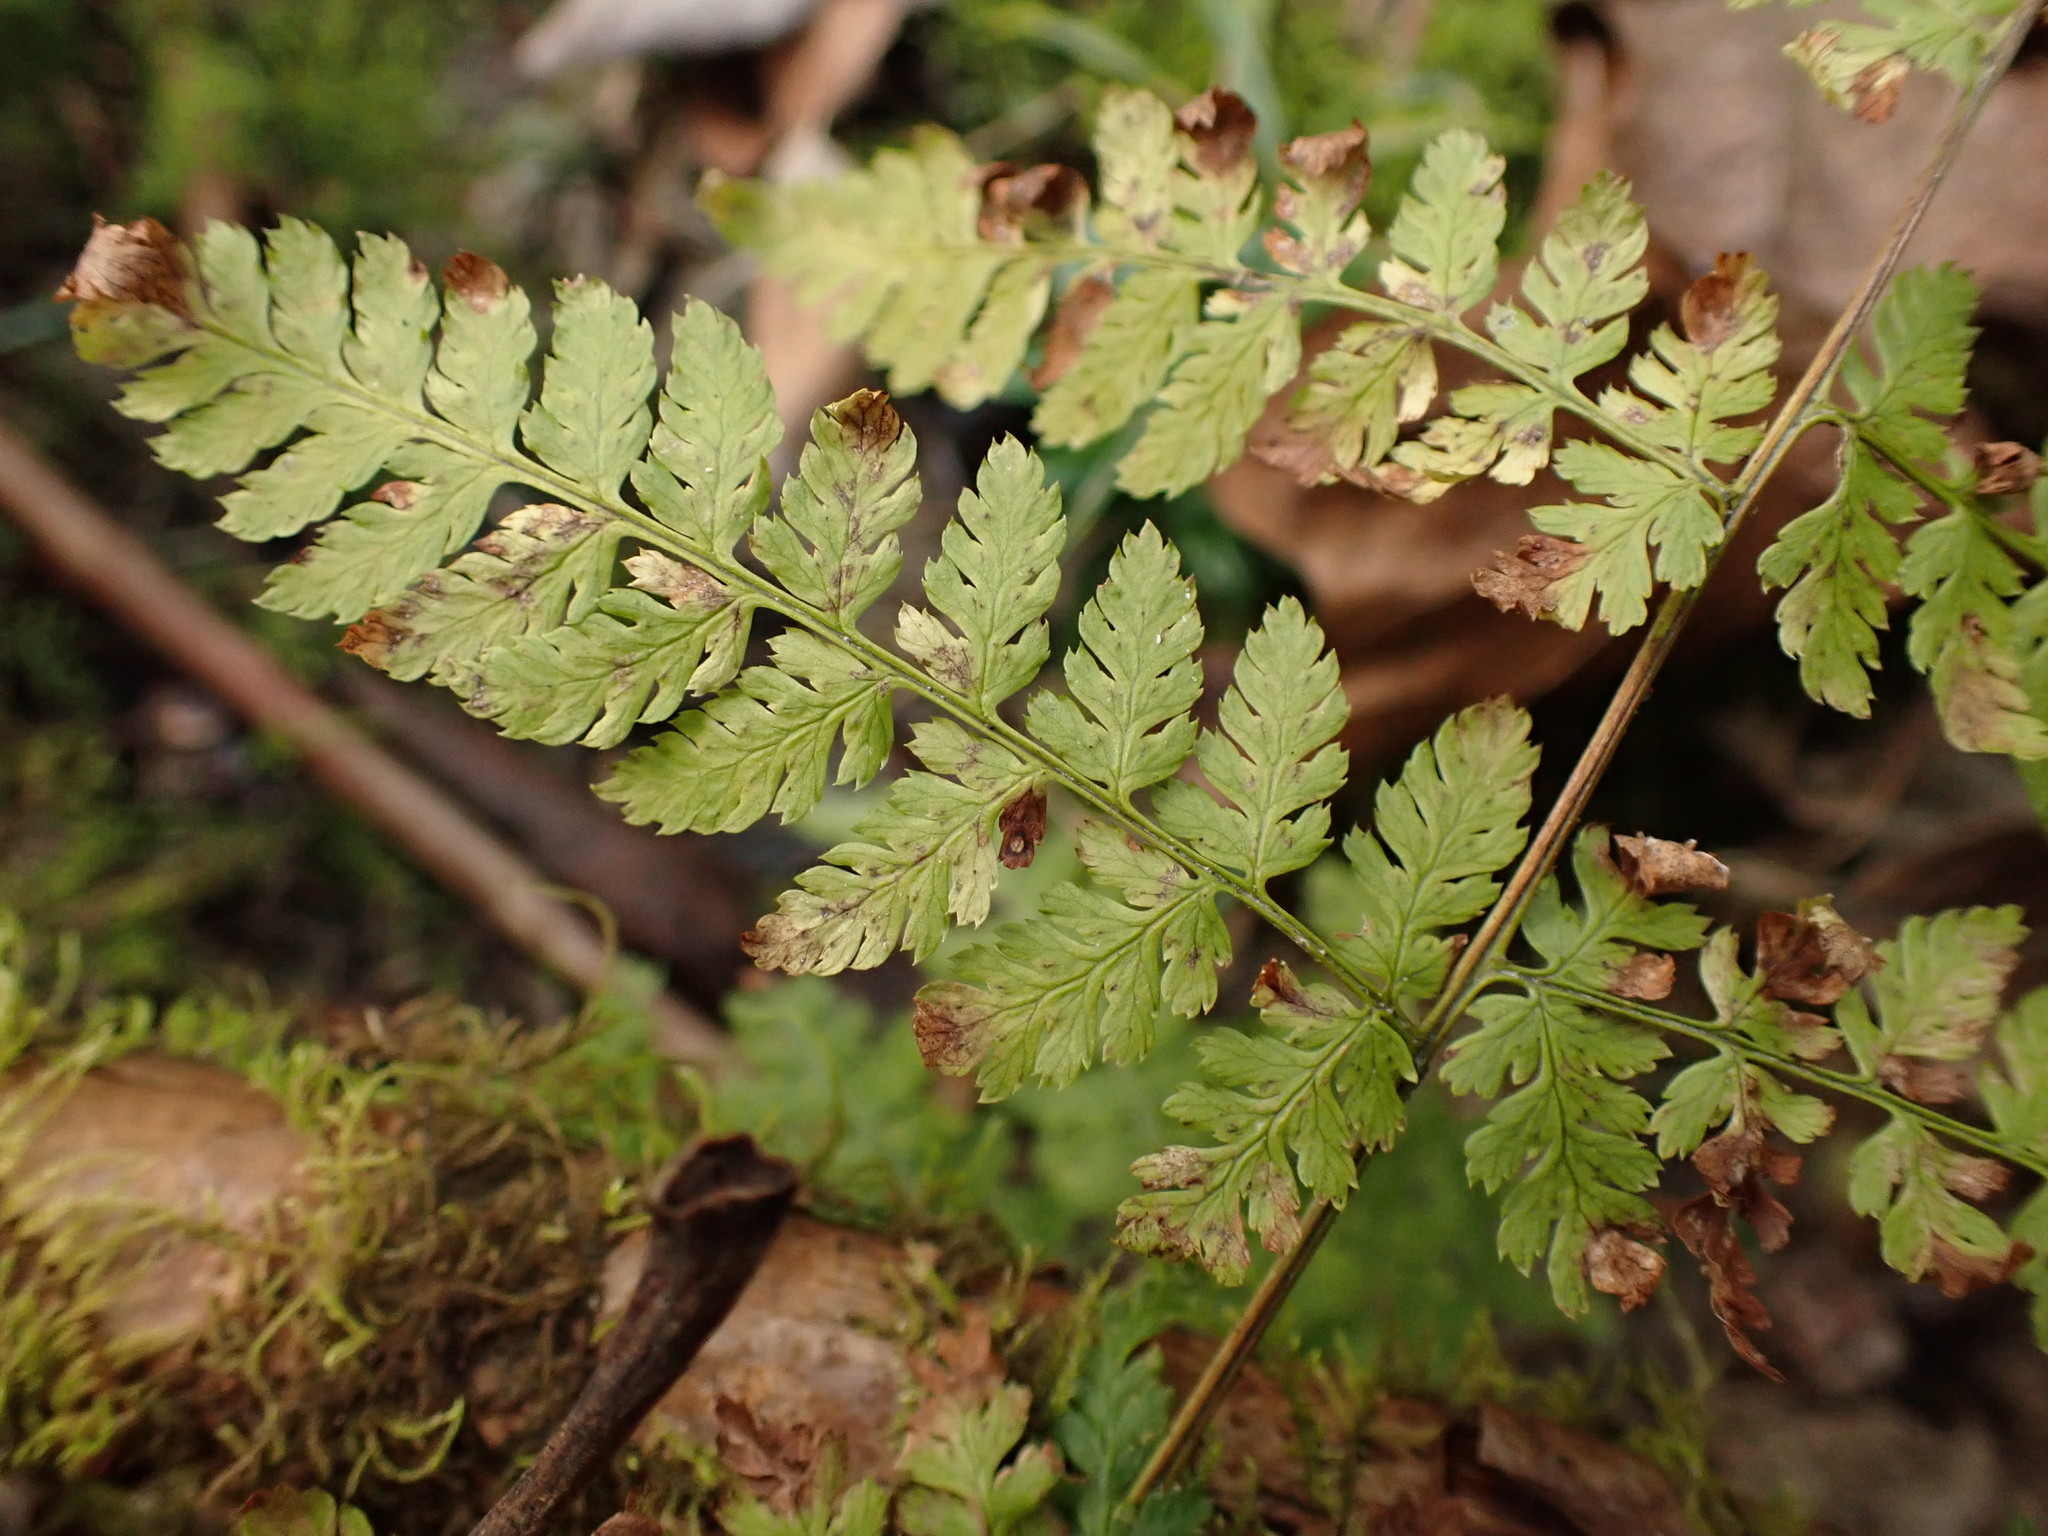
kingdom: Plantae
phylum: Tracheophyta
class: Polypodiopsida
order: Polypodiales
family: Dryopteridaceae
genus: Dryopteris
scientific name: Dryopteris expansa
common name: Northern buckler fern
